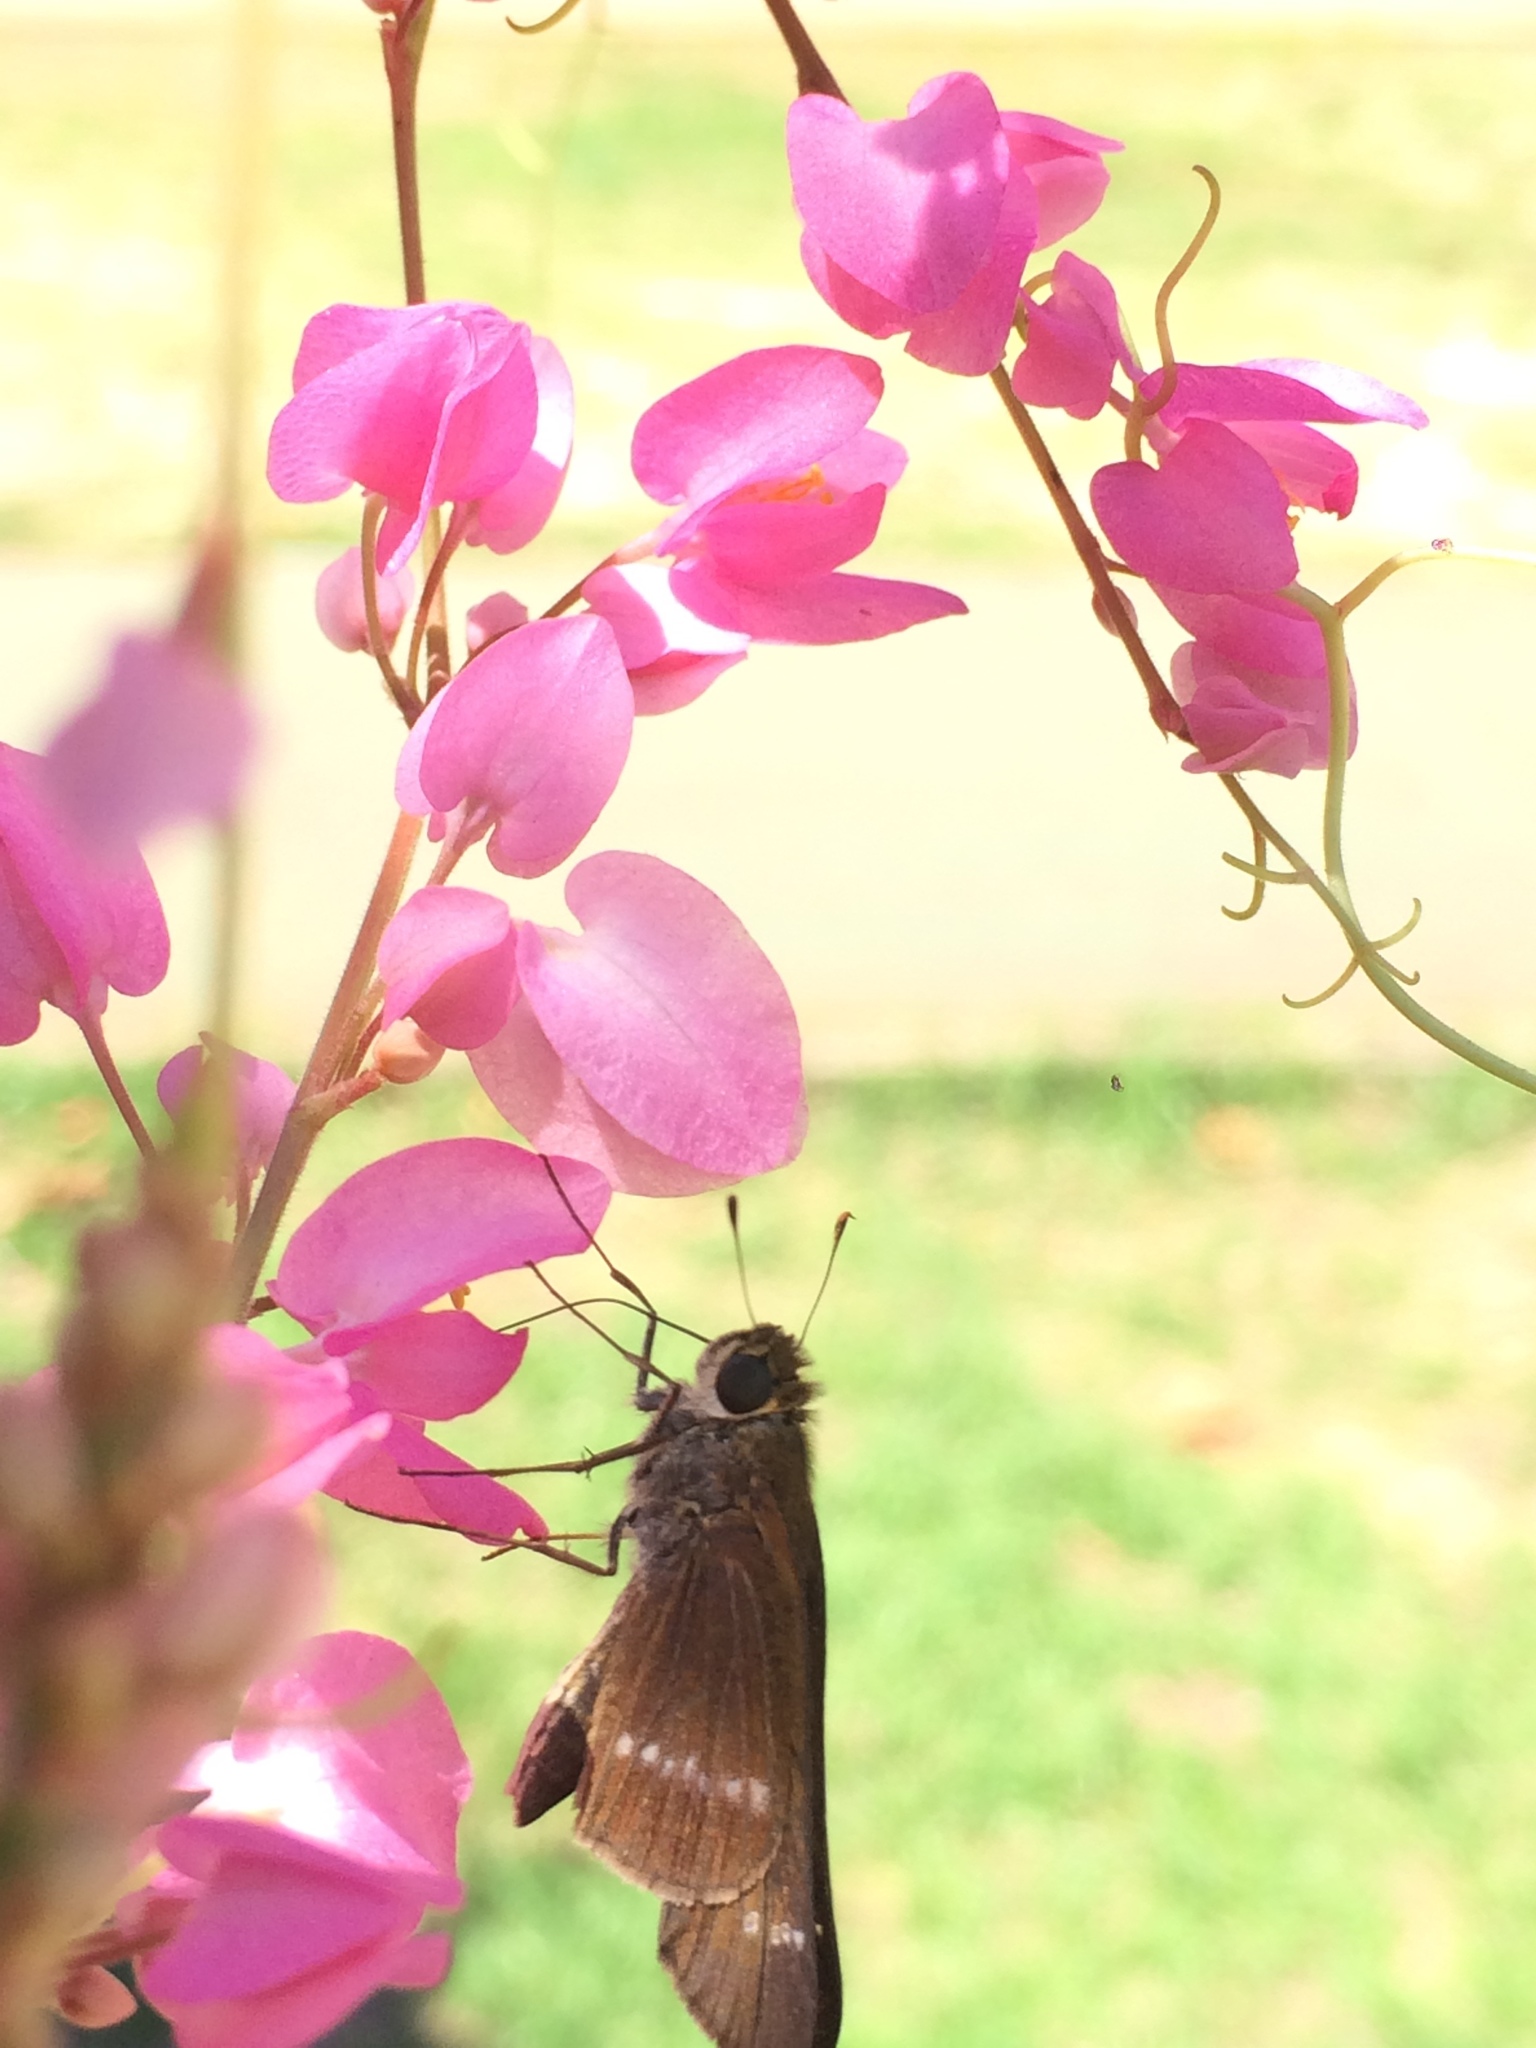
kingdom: Plantae
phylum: Tracheophyta
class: Magnoliopsida
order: Caryophyllales
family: Polygonaceae
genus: Antigonon
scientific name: Antigonon leptopus
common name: Coral vine
